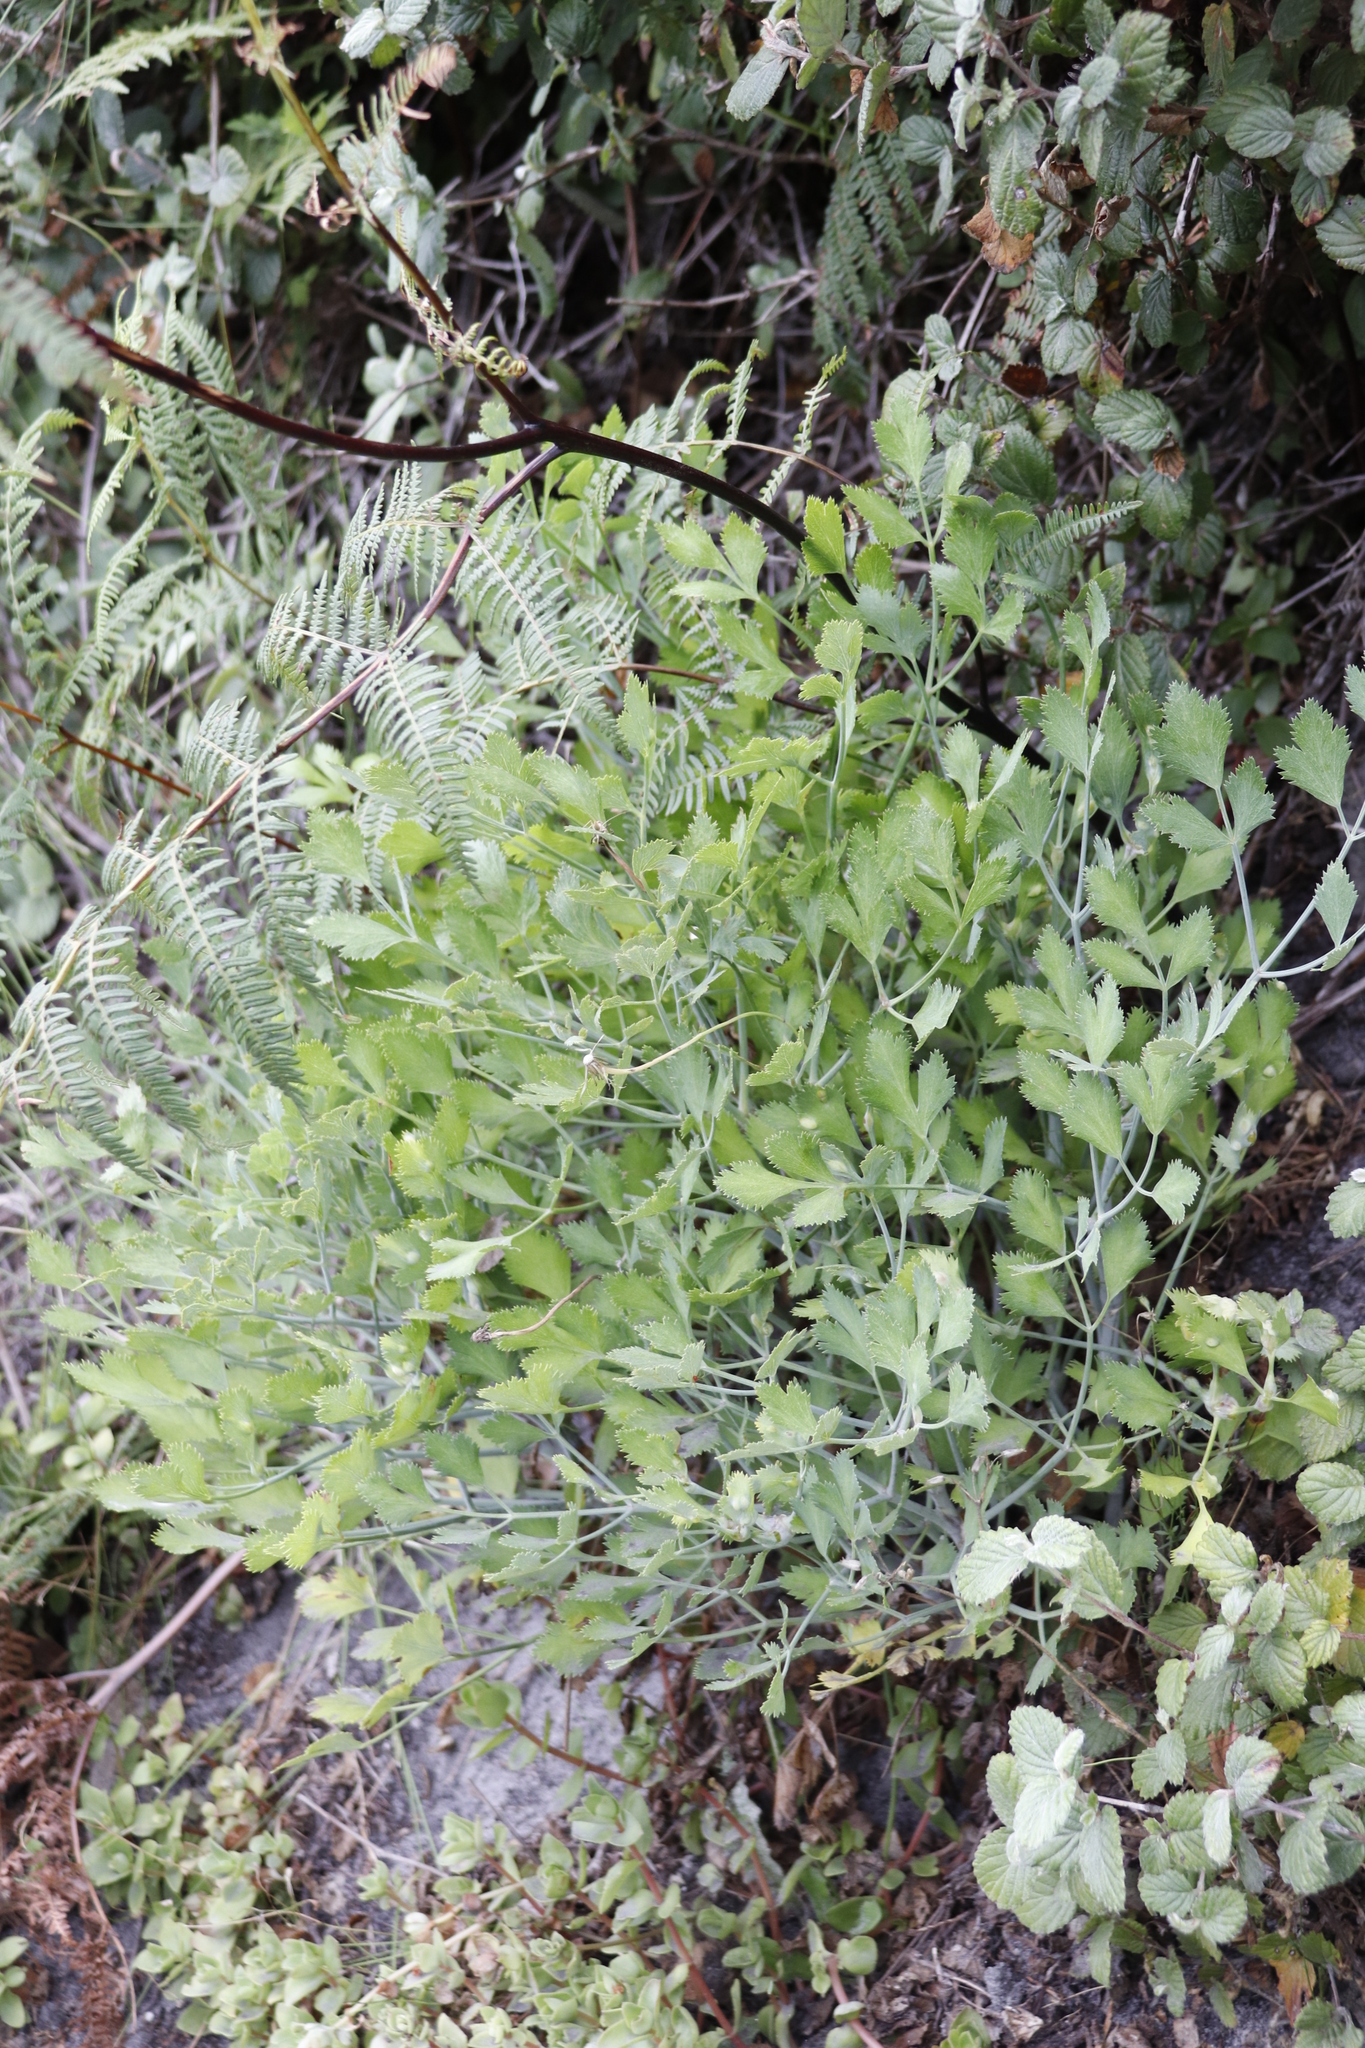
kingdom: Plantae
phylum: Tracheophyta
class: Magnoliopsida
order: Apiales
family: Apiaceae
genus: Notobubon
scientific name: Notobubon galbanum
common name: Blisterbush
